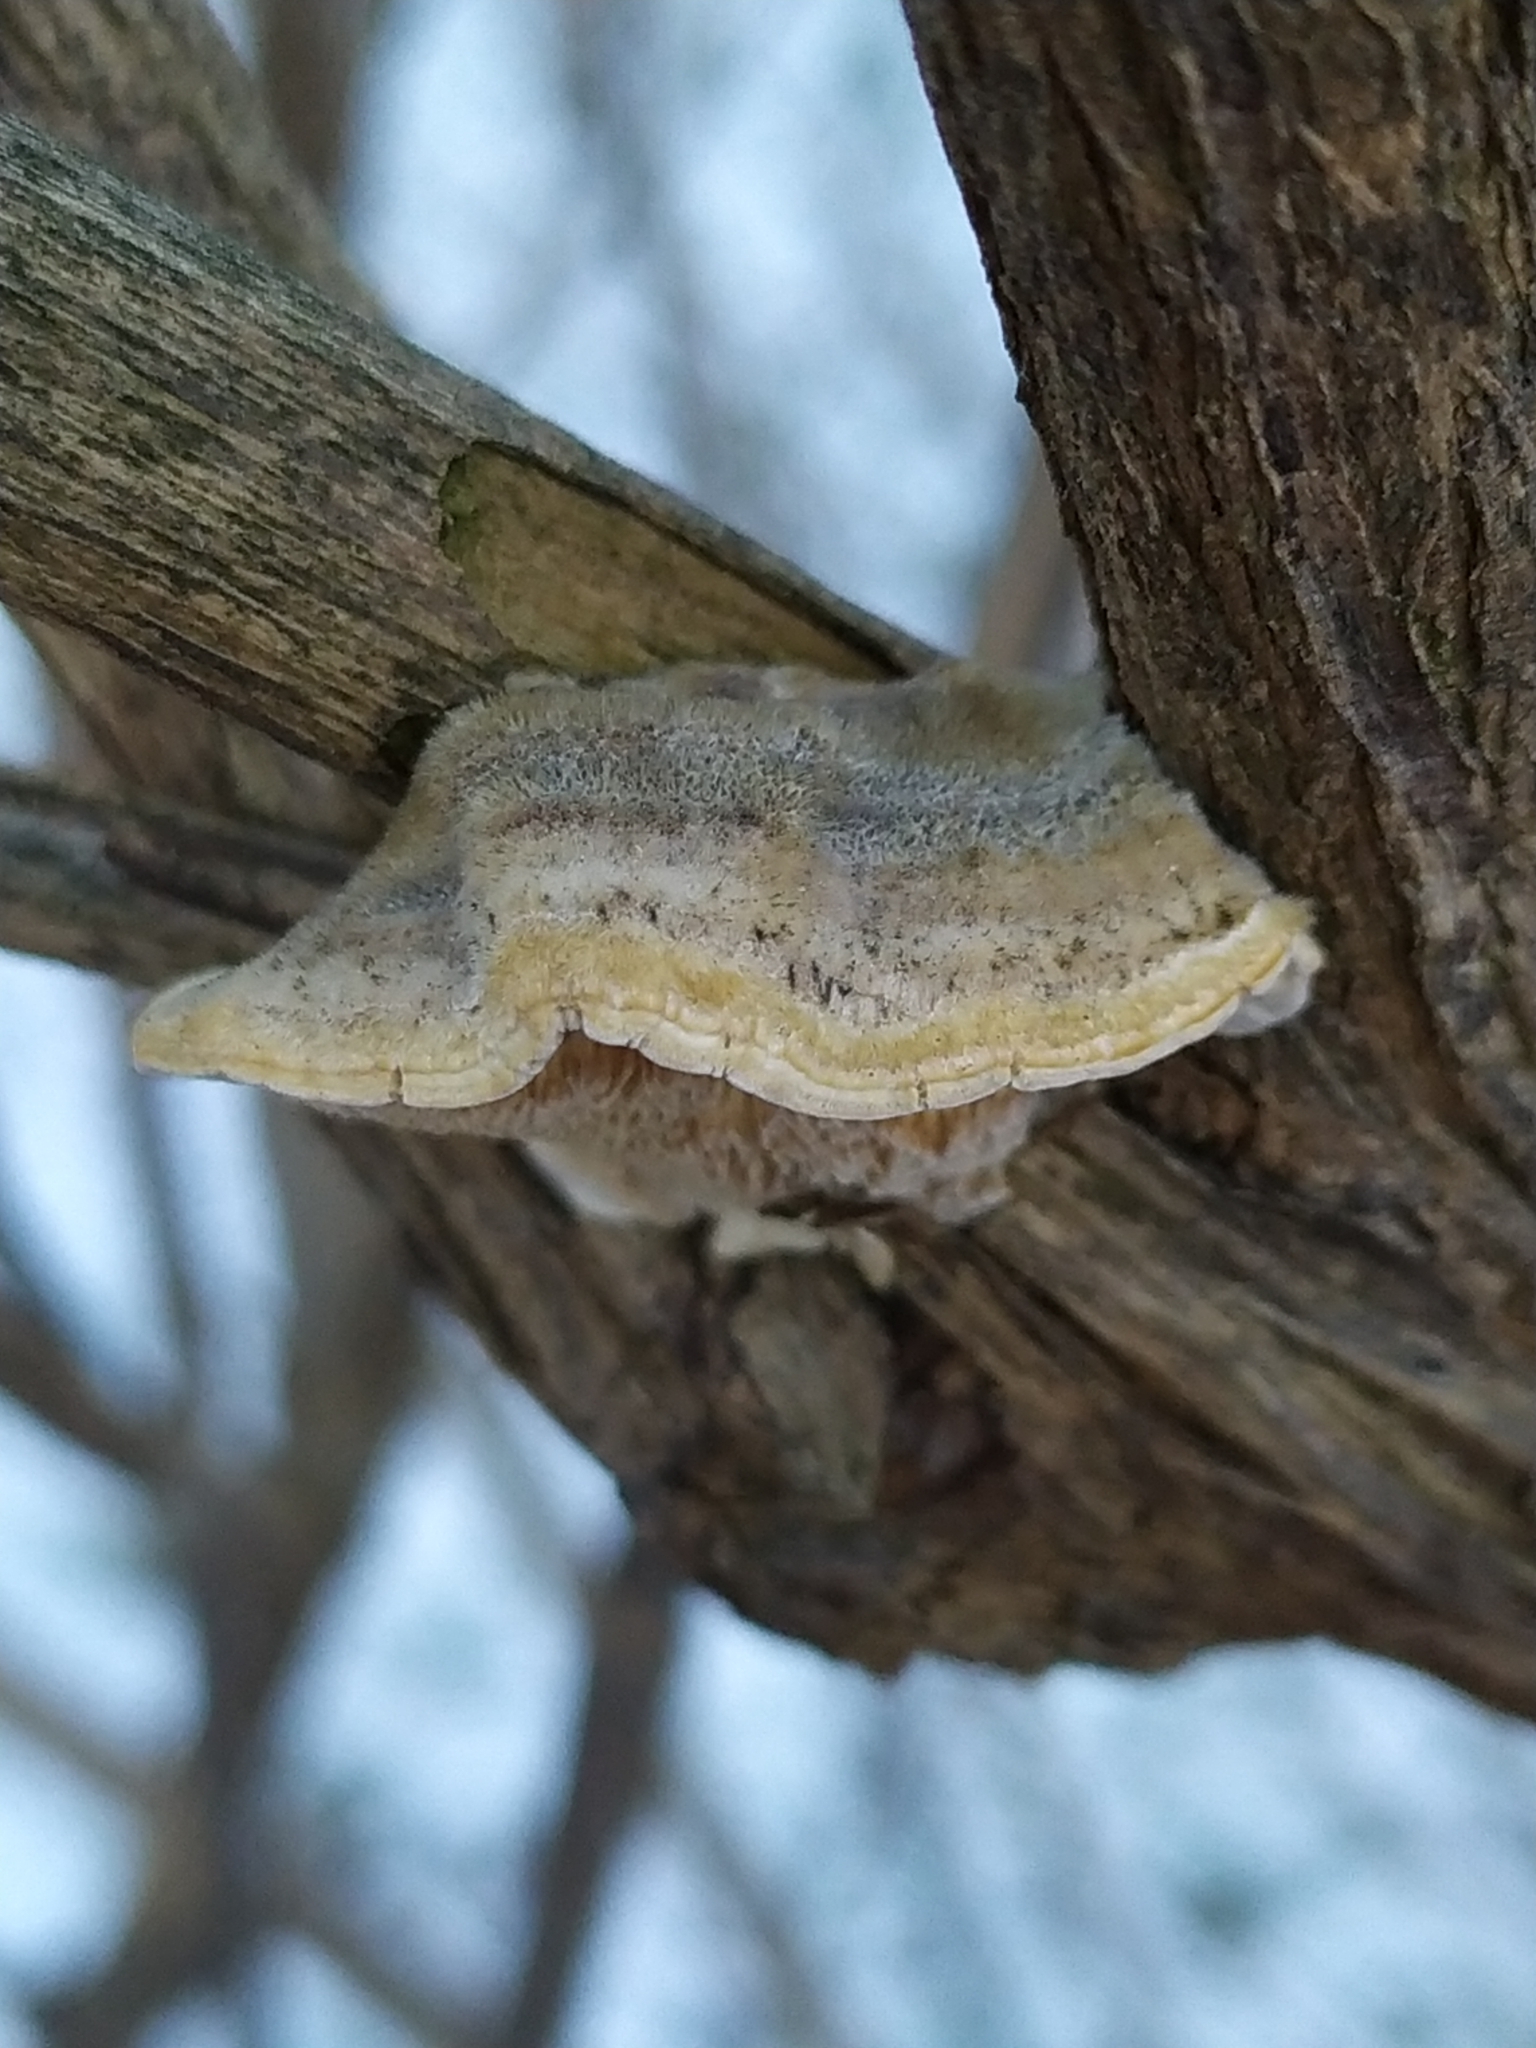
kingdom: Fungi
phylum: Basidiomycota
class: Agaricomycetes
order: Polyporales
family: Polyporaceae
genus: Trametes
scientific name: Trametes hirsuta
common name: Hairy bracket
